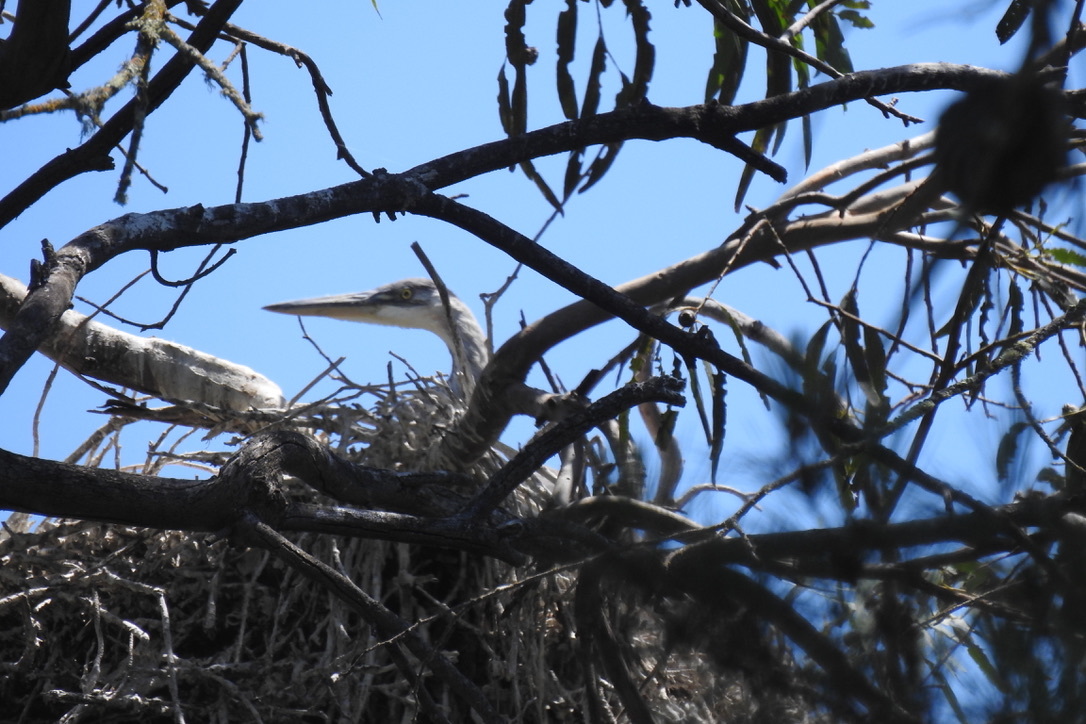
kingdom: Animalia
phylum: Chordata
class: Aves
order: Pelecaniformes
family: Ardeidae
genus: Ardea
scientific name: Ardea herodias
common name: Great blue heron
